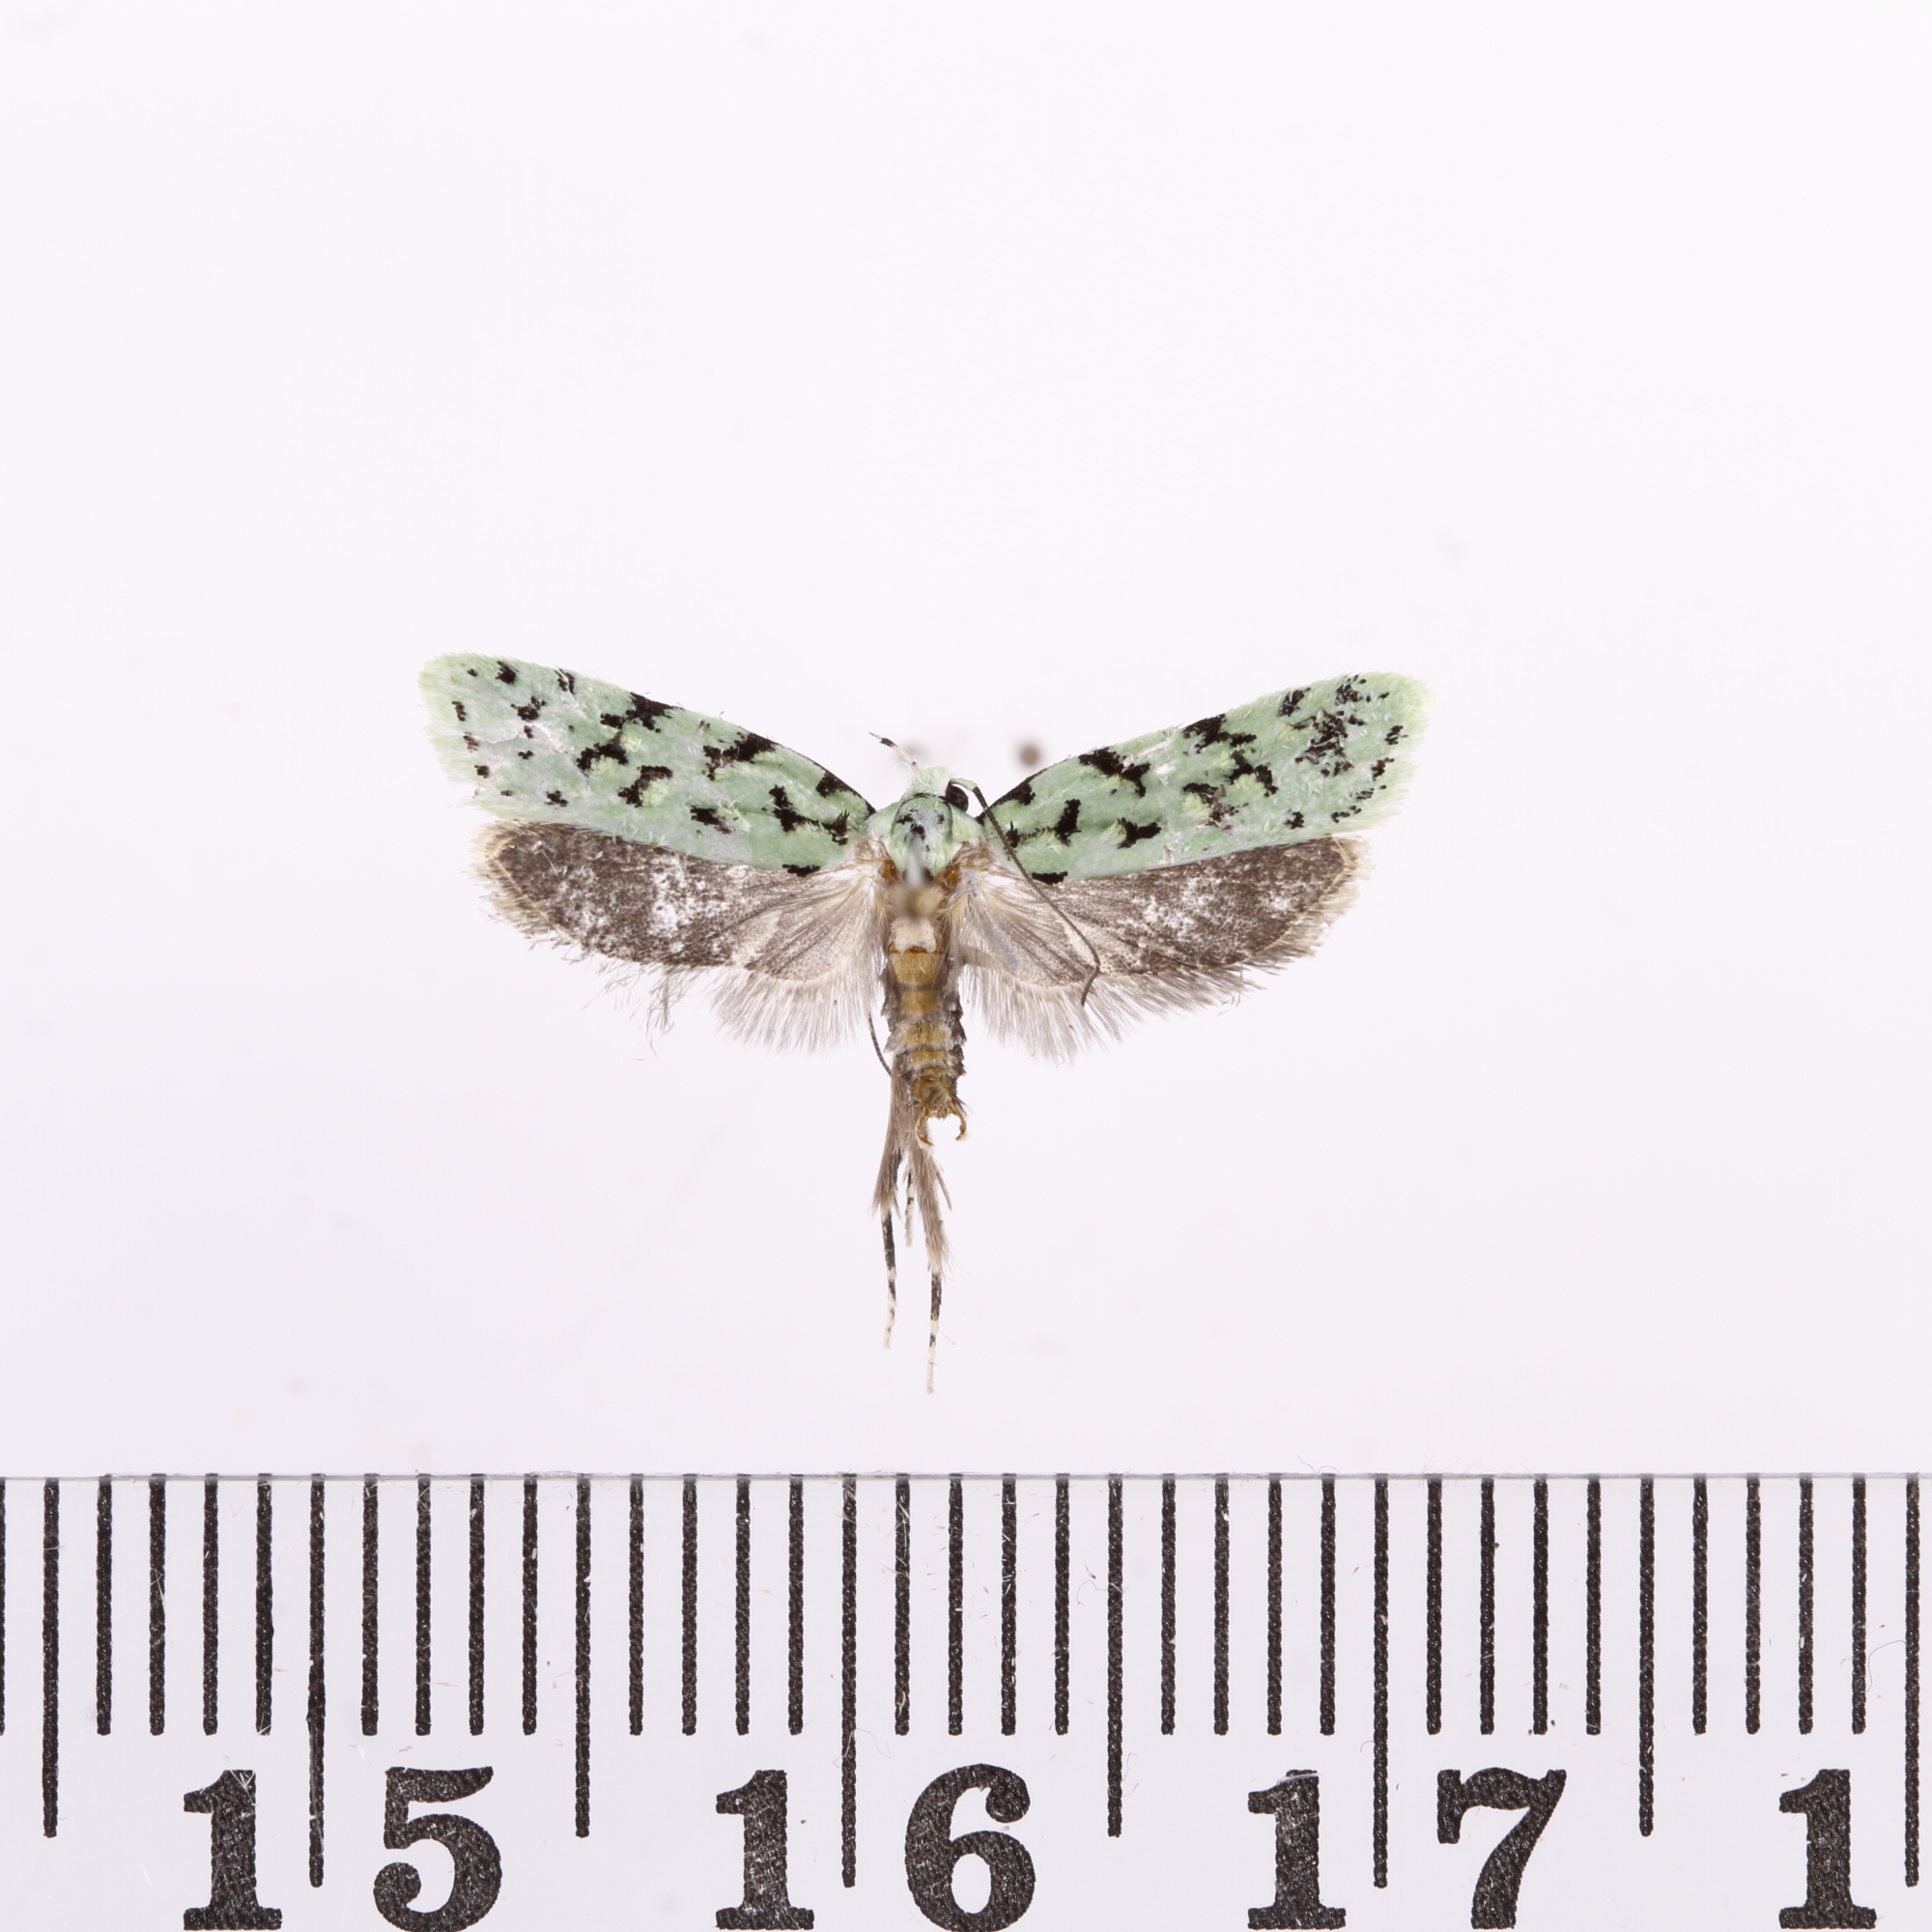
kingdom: Animalia
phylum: Arthropoda
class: Insecta
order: Lepidoptera
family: Oecophoridae
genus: Izatha
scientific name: Izatha huttoni
